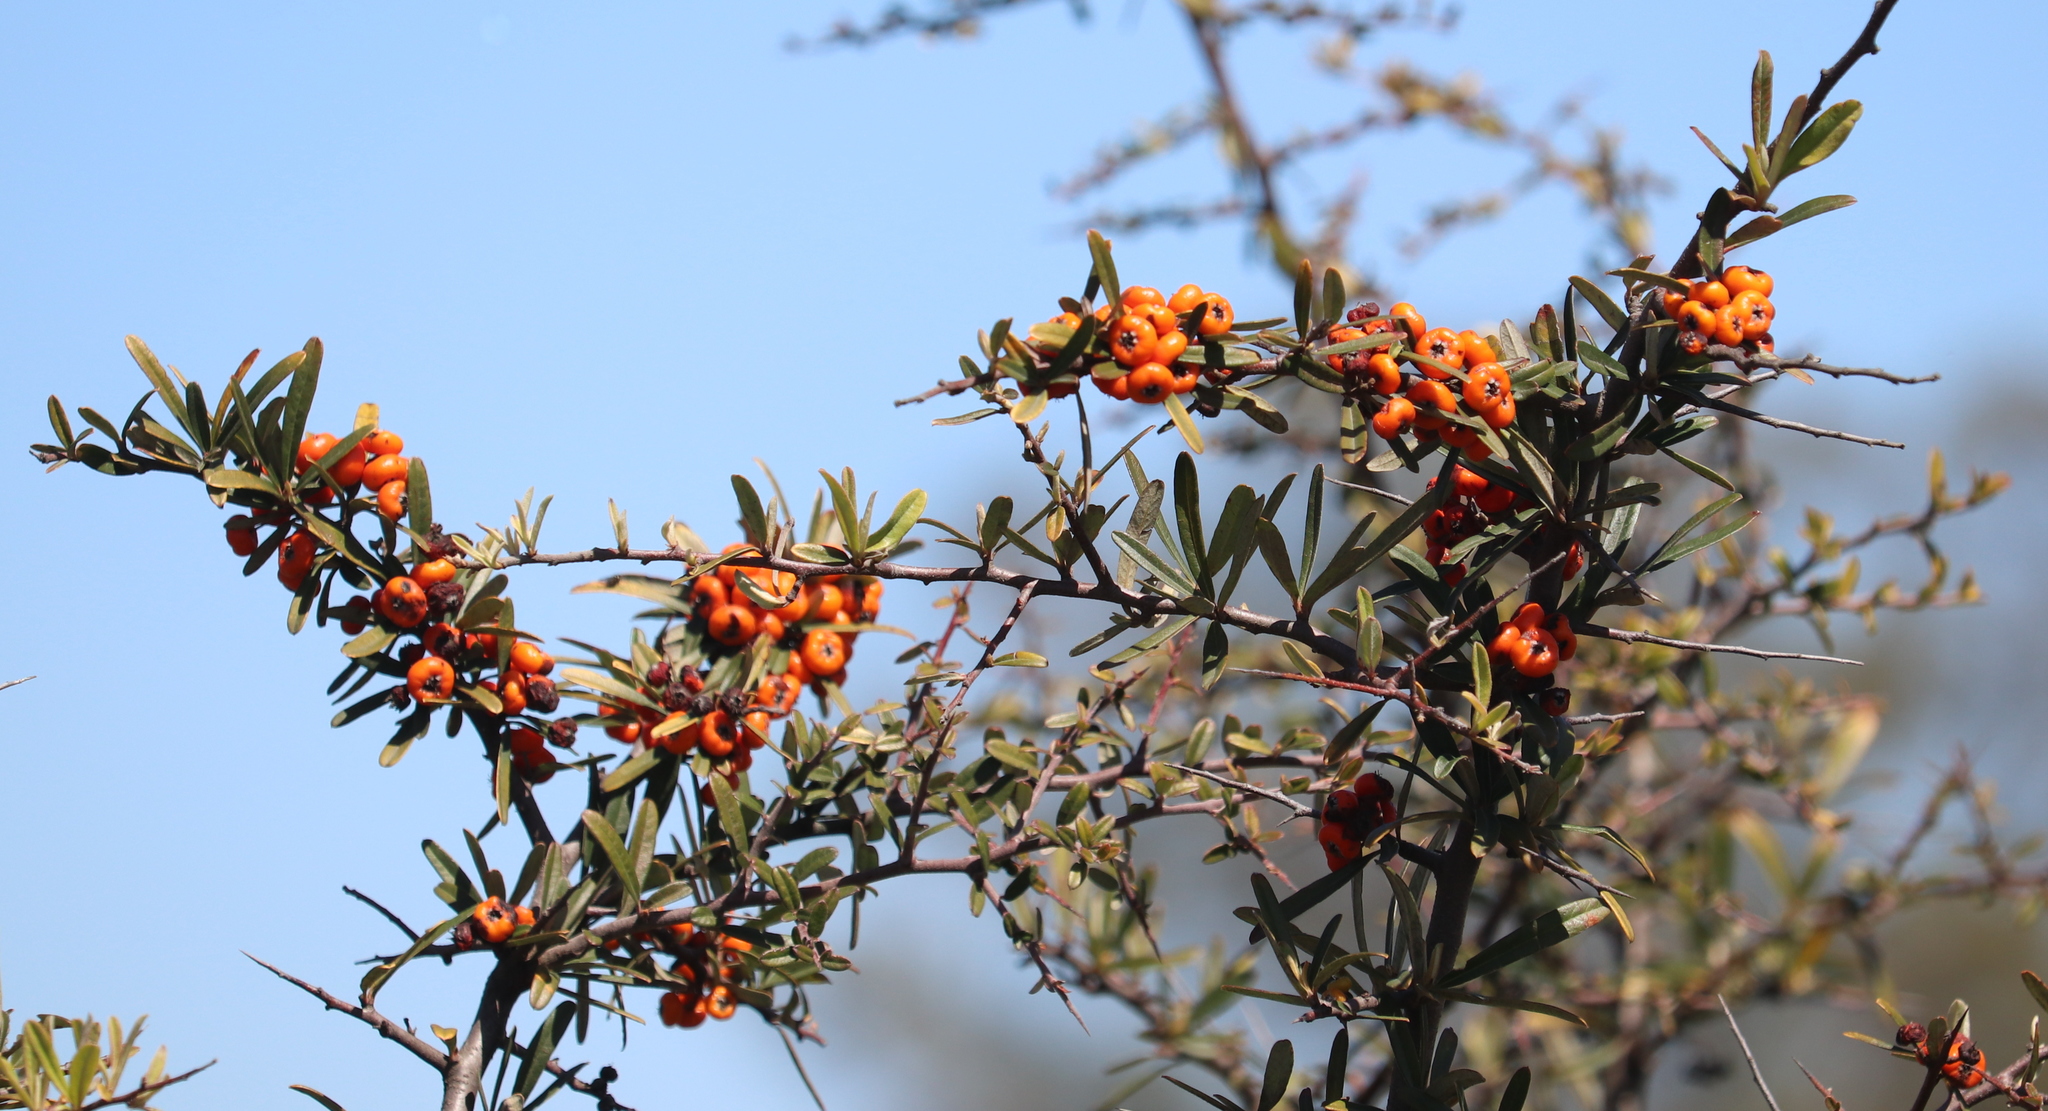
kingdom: Plantae
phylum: Tracheophyta
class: Magnoliopsida
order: Rosales
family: Rosaceae
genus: Pyracantha
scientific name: Pyracantha angustifolia
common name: Narrowleaf firethorn
